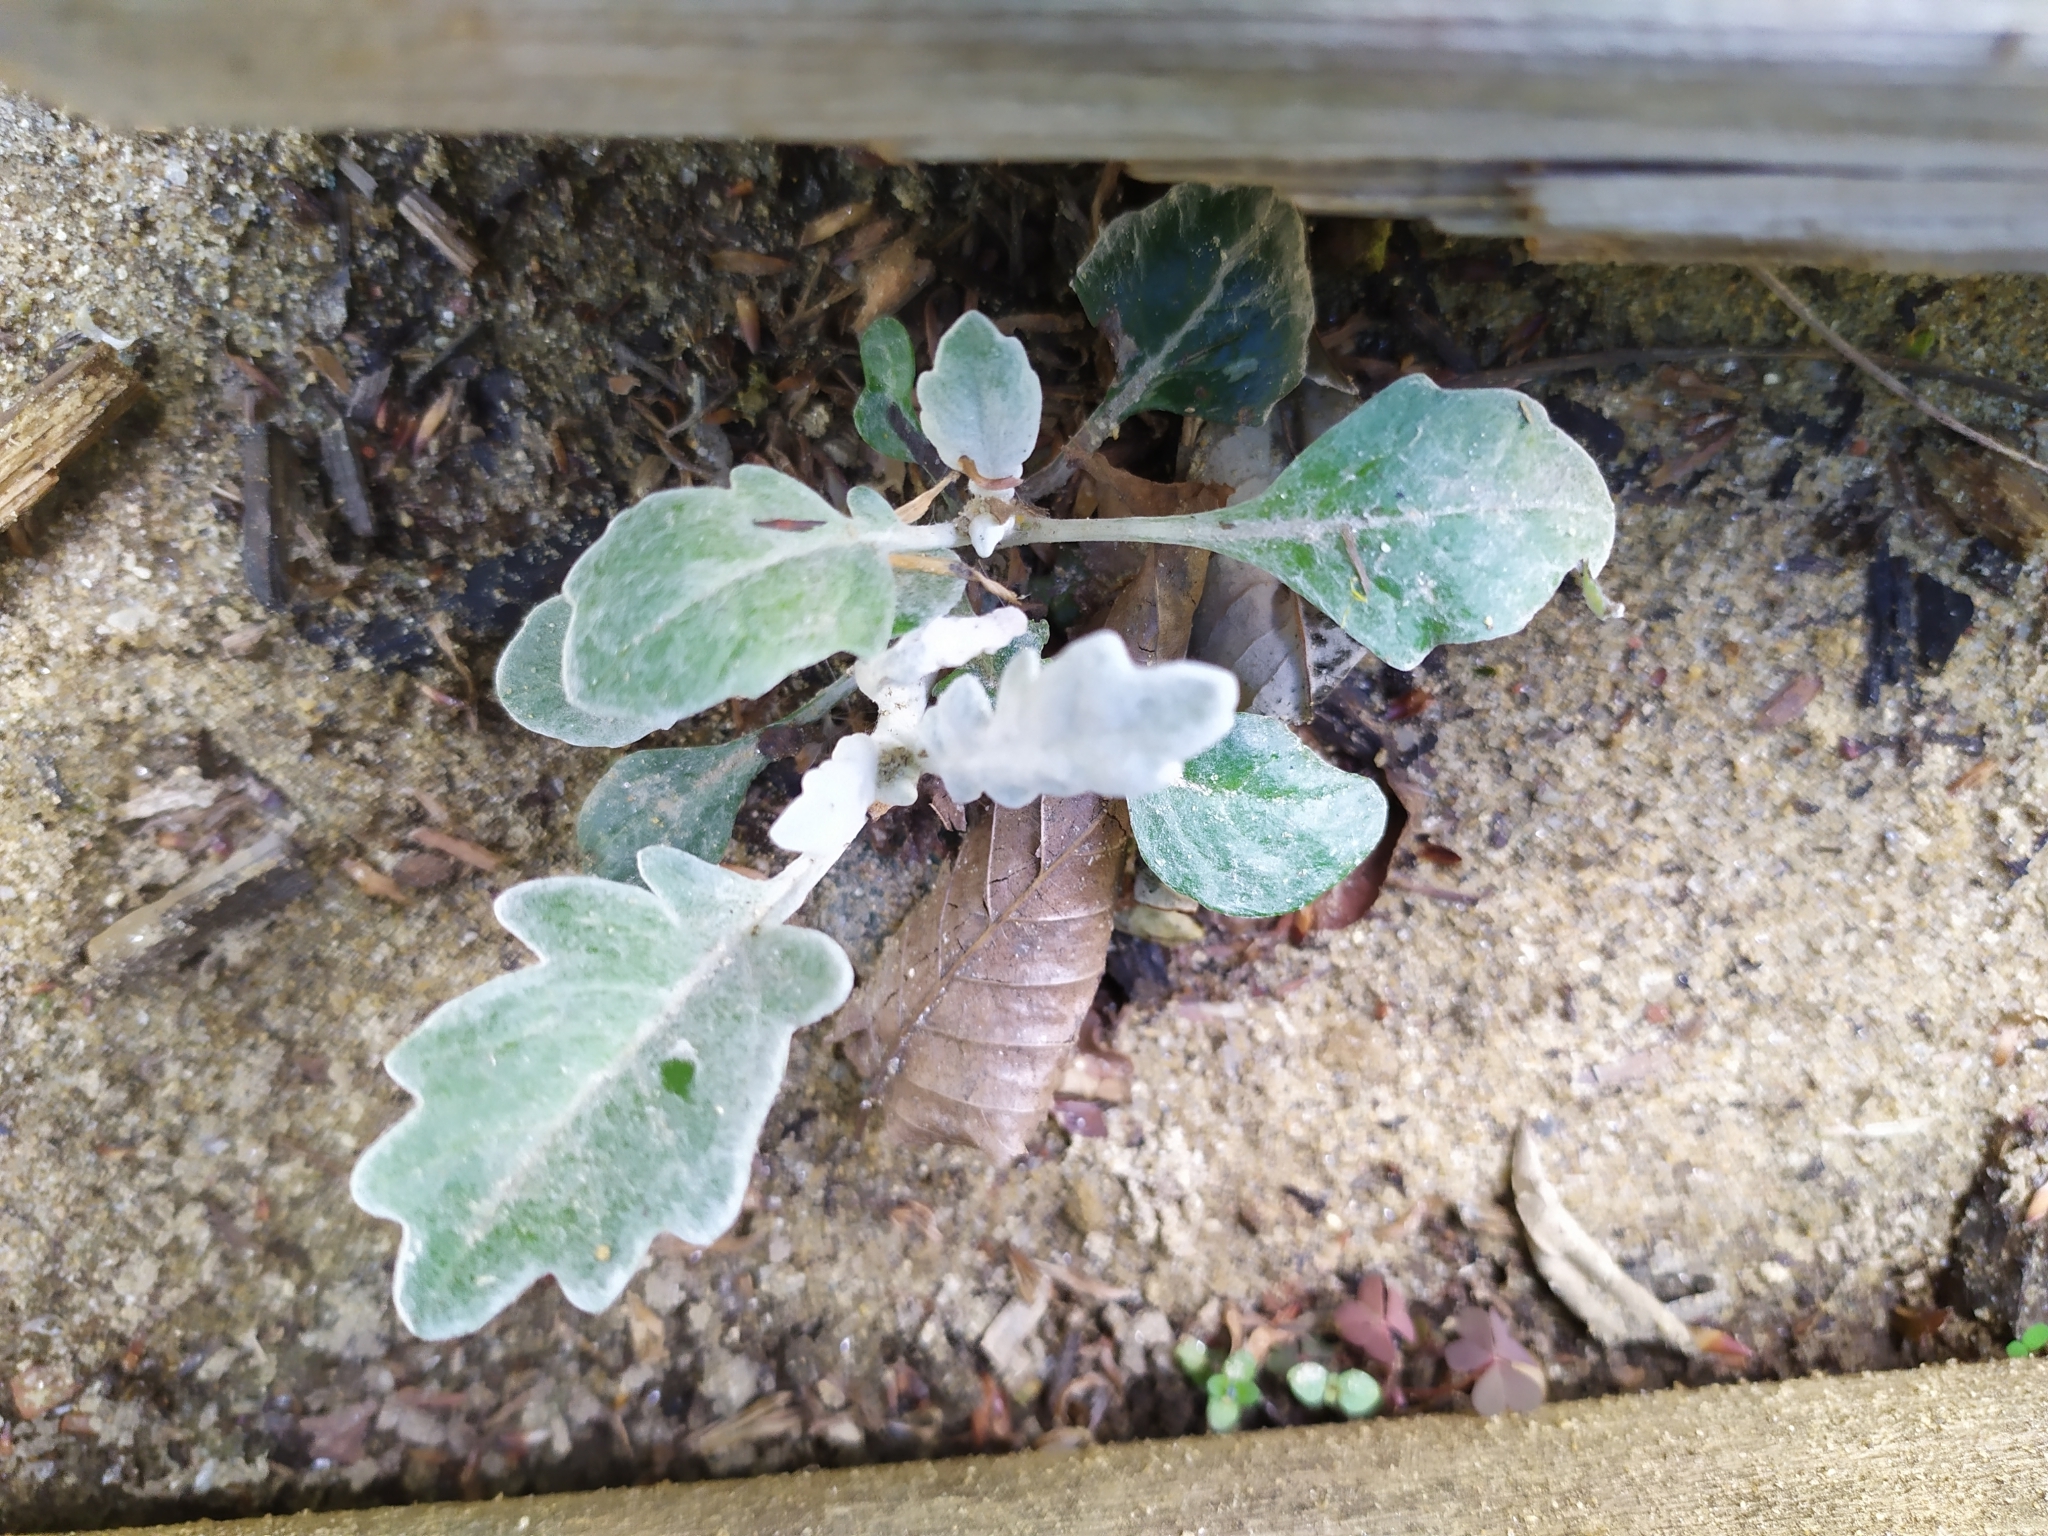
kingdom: Plantae
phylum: Tracheophyta
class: Magnoliopsida
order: Asterales
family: Asteraceae
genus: Jacobaea
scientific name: Jacobaea maritima
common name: Silver ragwort
